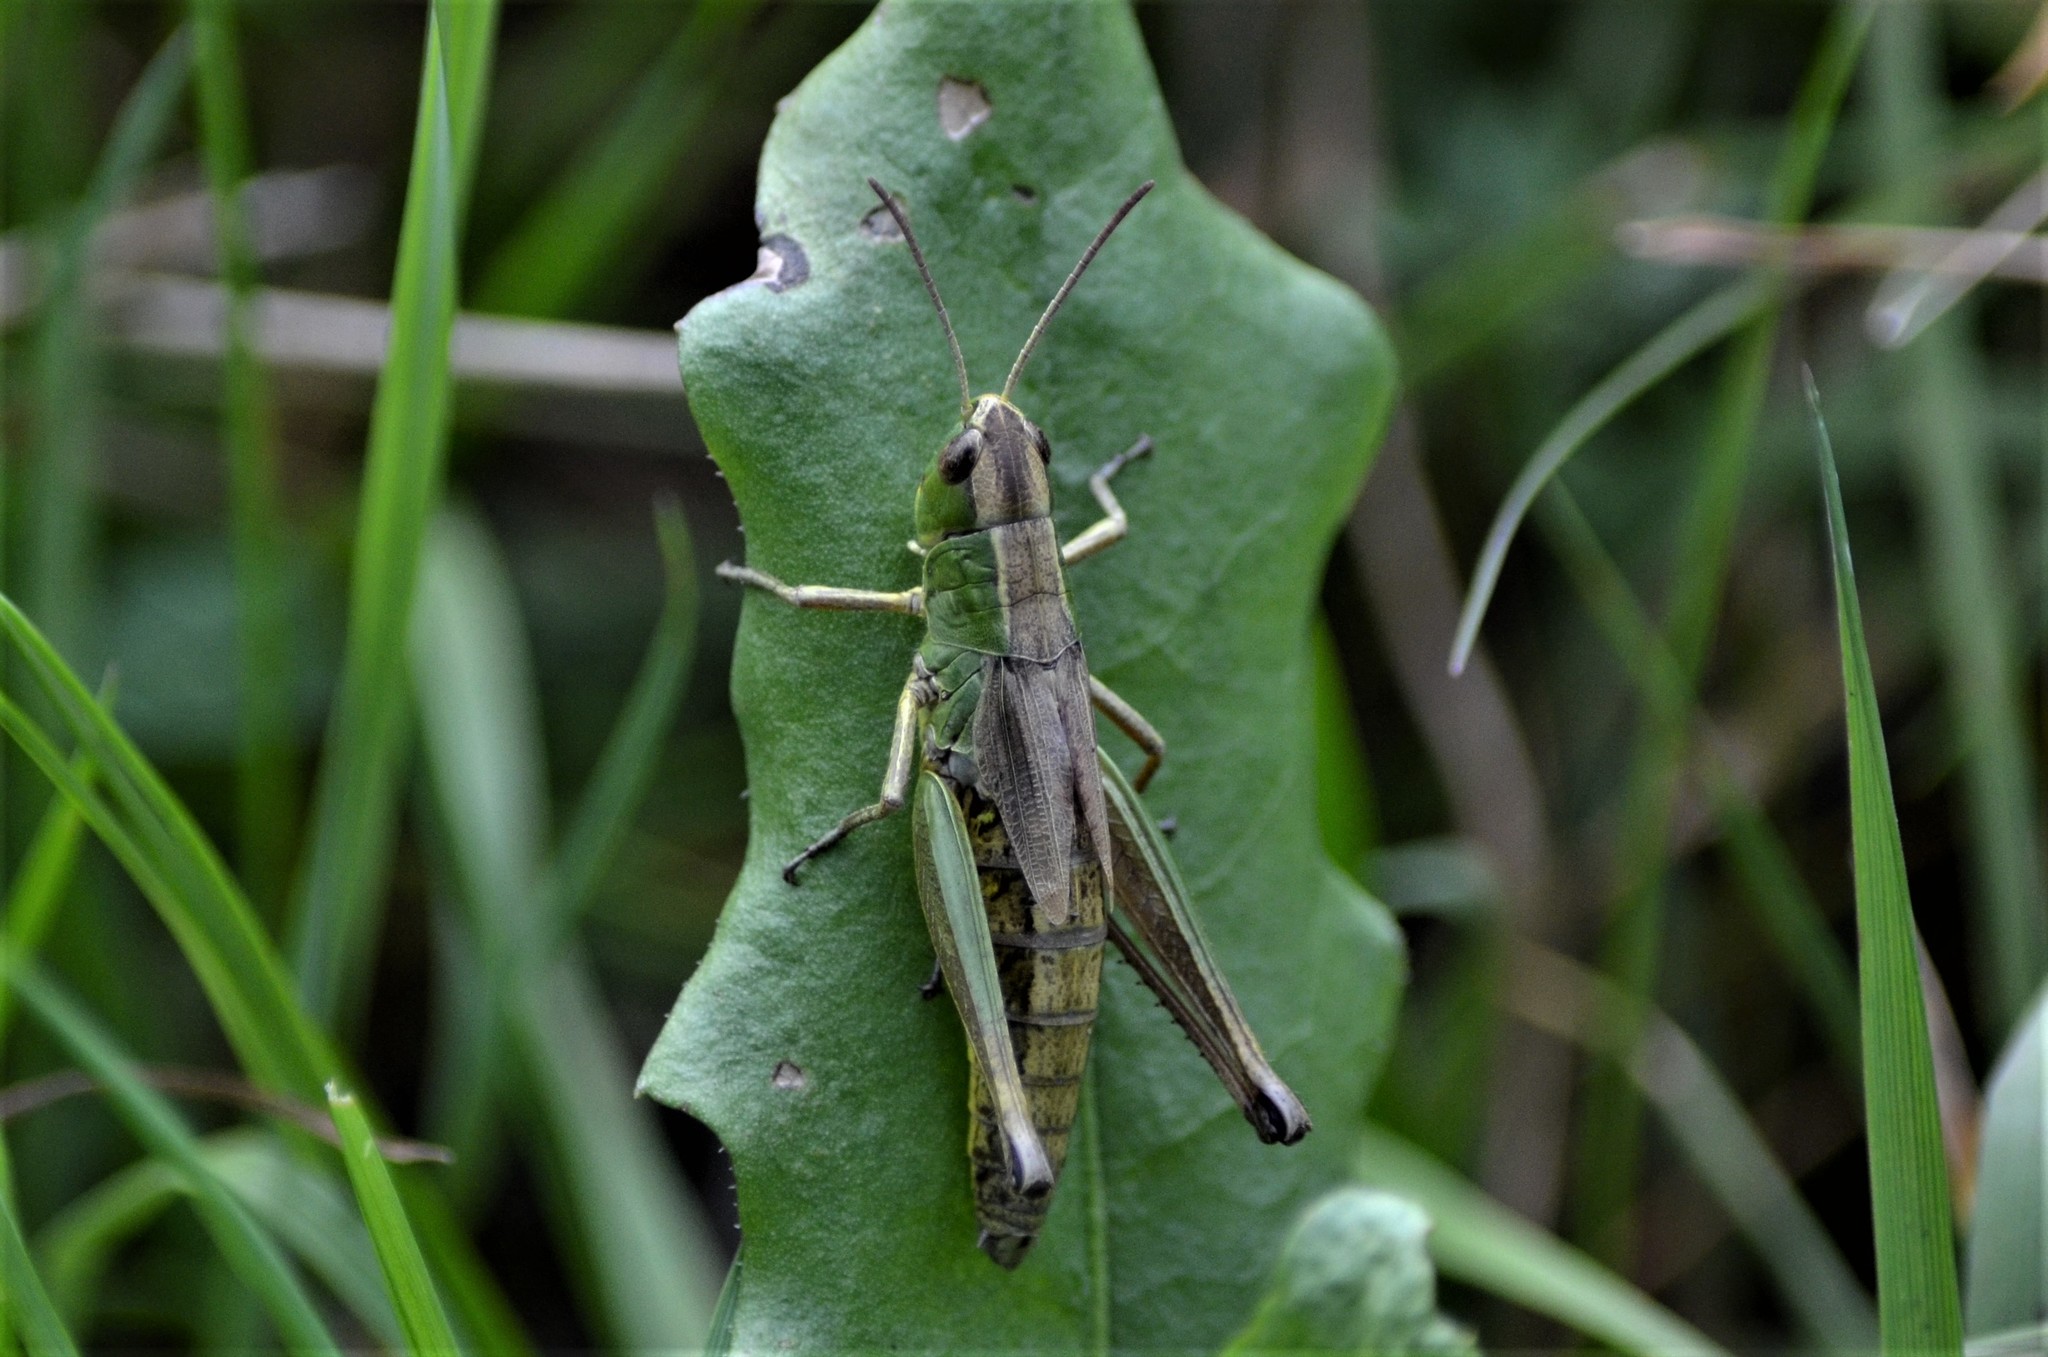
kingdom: Animalia
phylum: Arthropoda
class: Insecta
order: Orthoptera
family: Acrididae
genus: Pseudochorthippus
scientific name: Pseudochorthippus parallelus
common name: Meadow grasshopper
